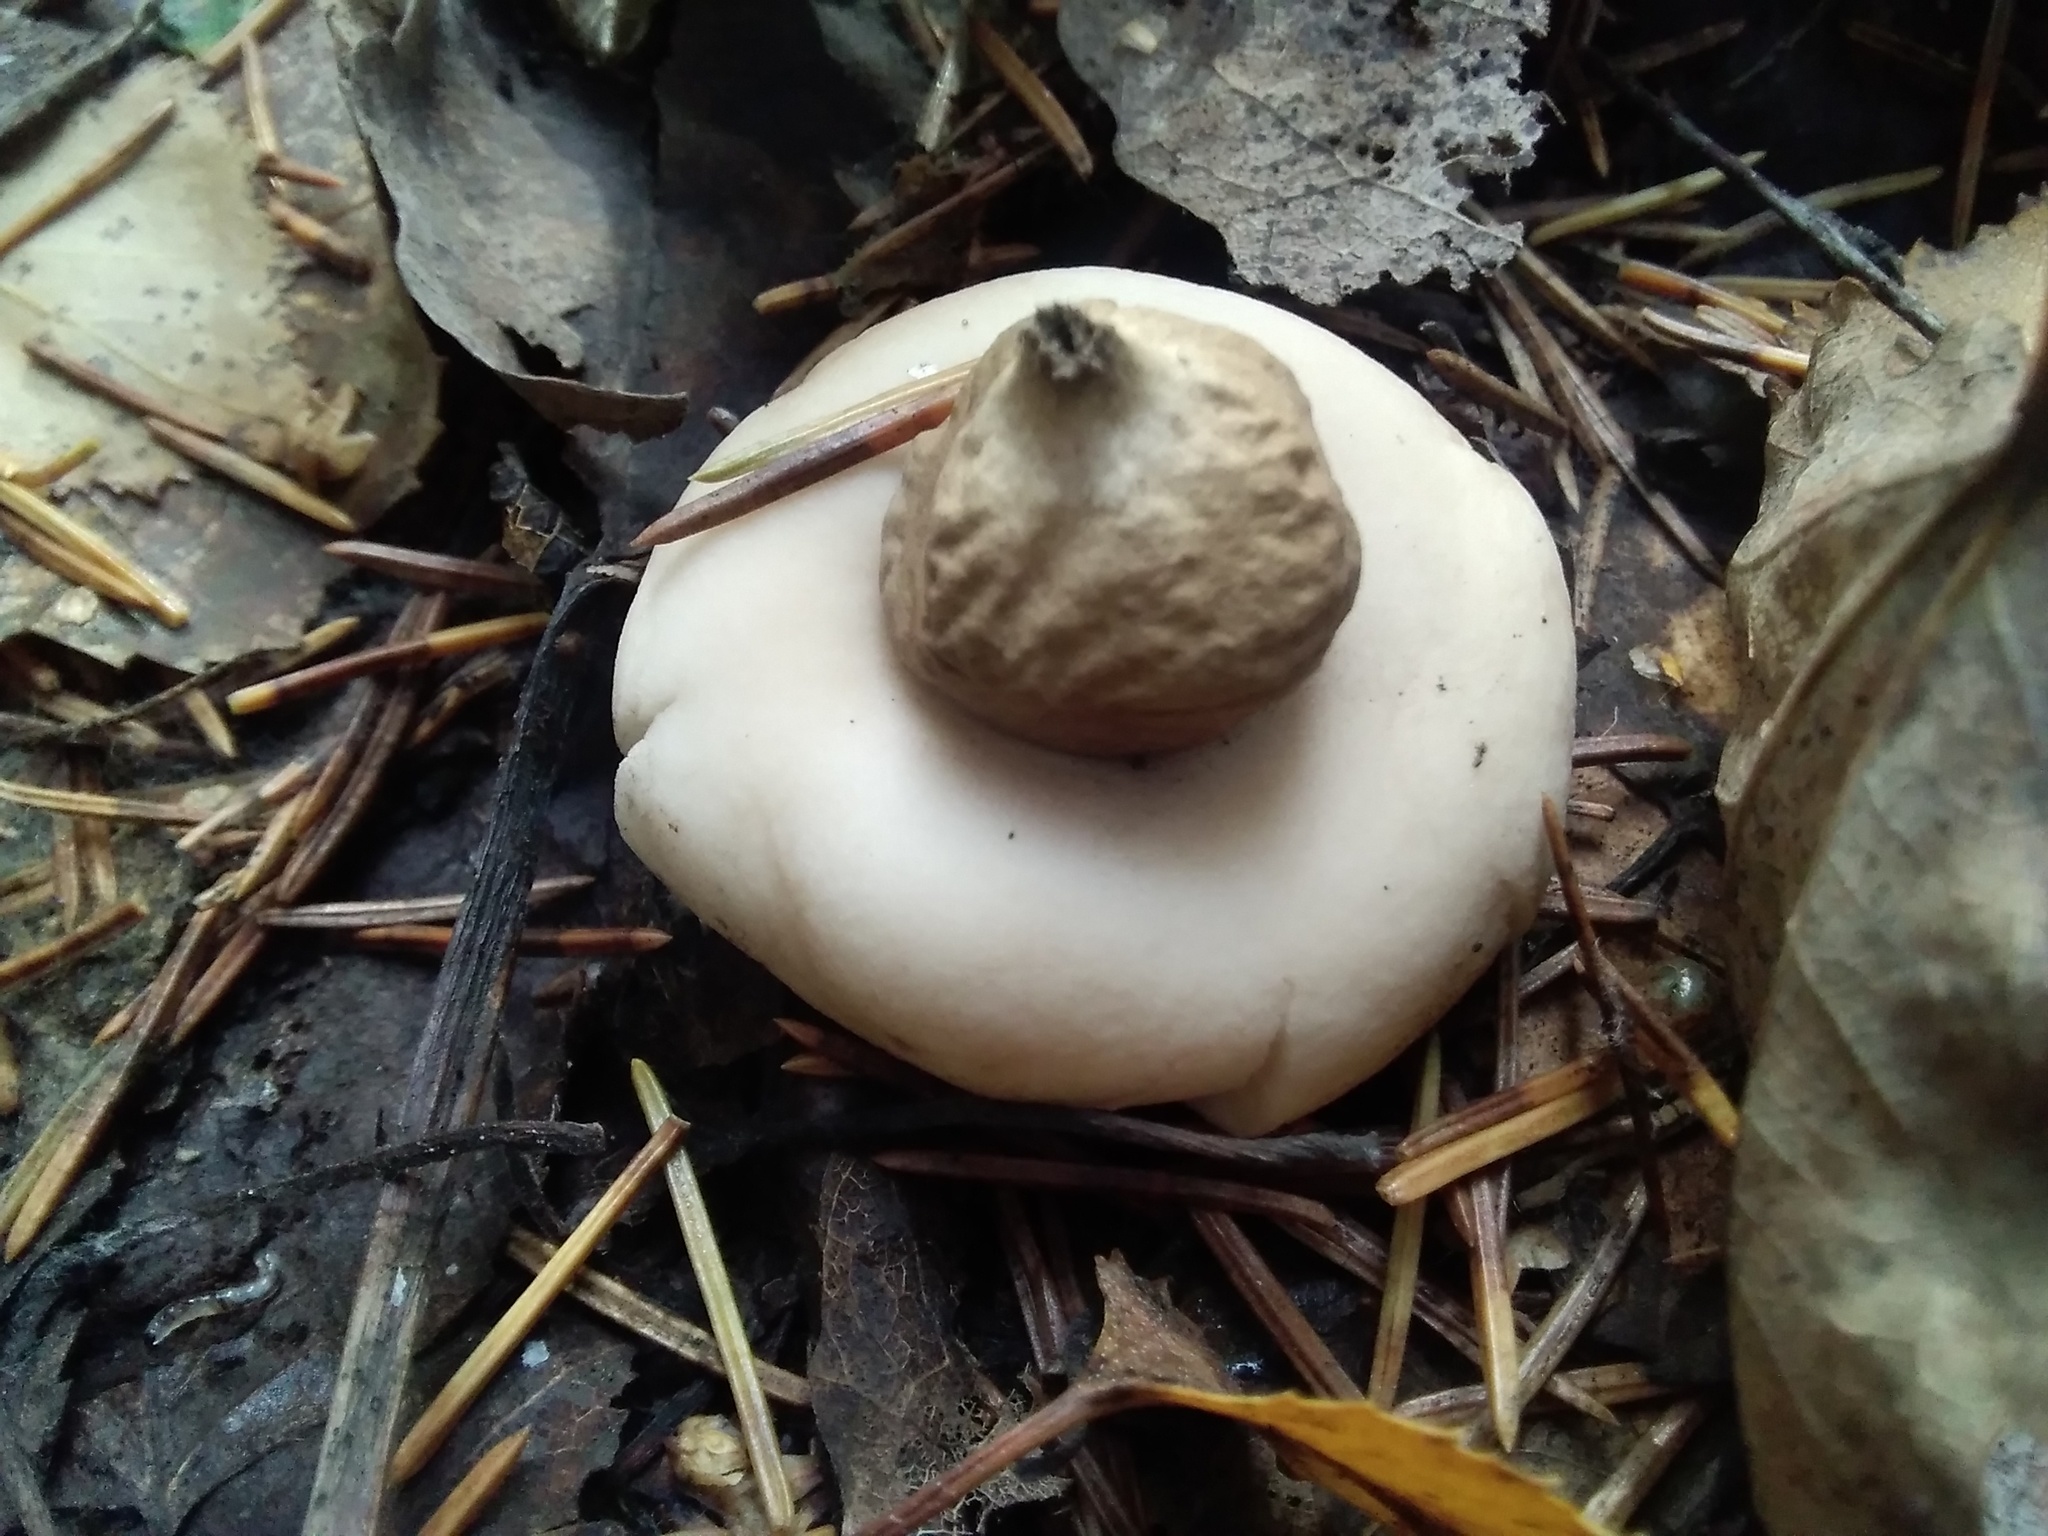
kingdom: Fungi
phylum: Basidiomycota
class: Agaricomycetes
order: Geastrales
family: Geastraceae
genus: Geastrum
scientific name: Geastrum fimbriatum
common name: Sessile earthstar
